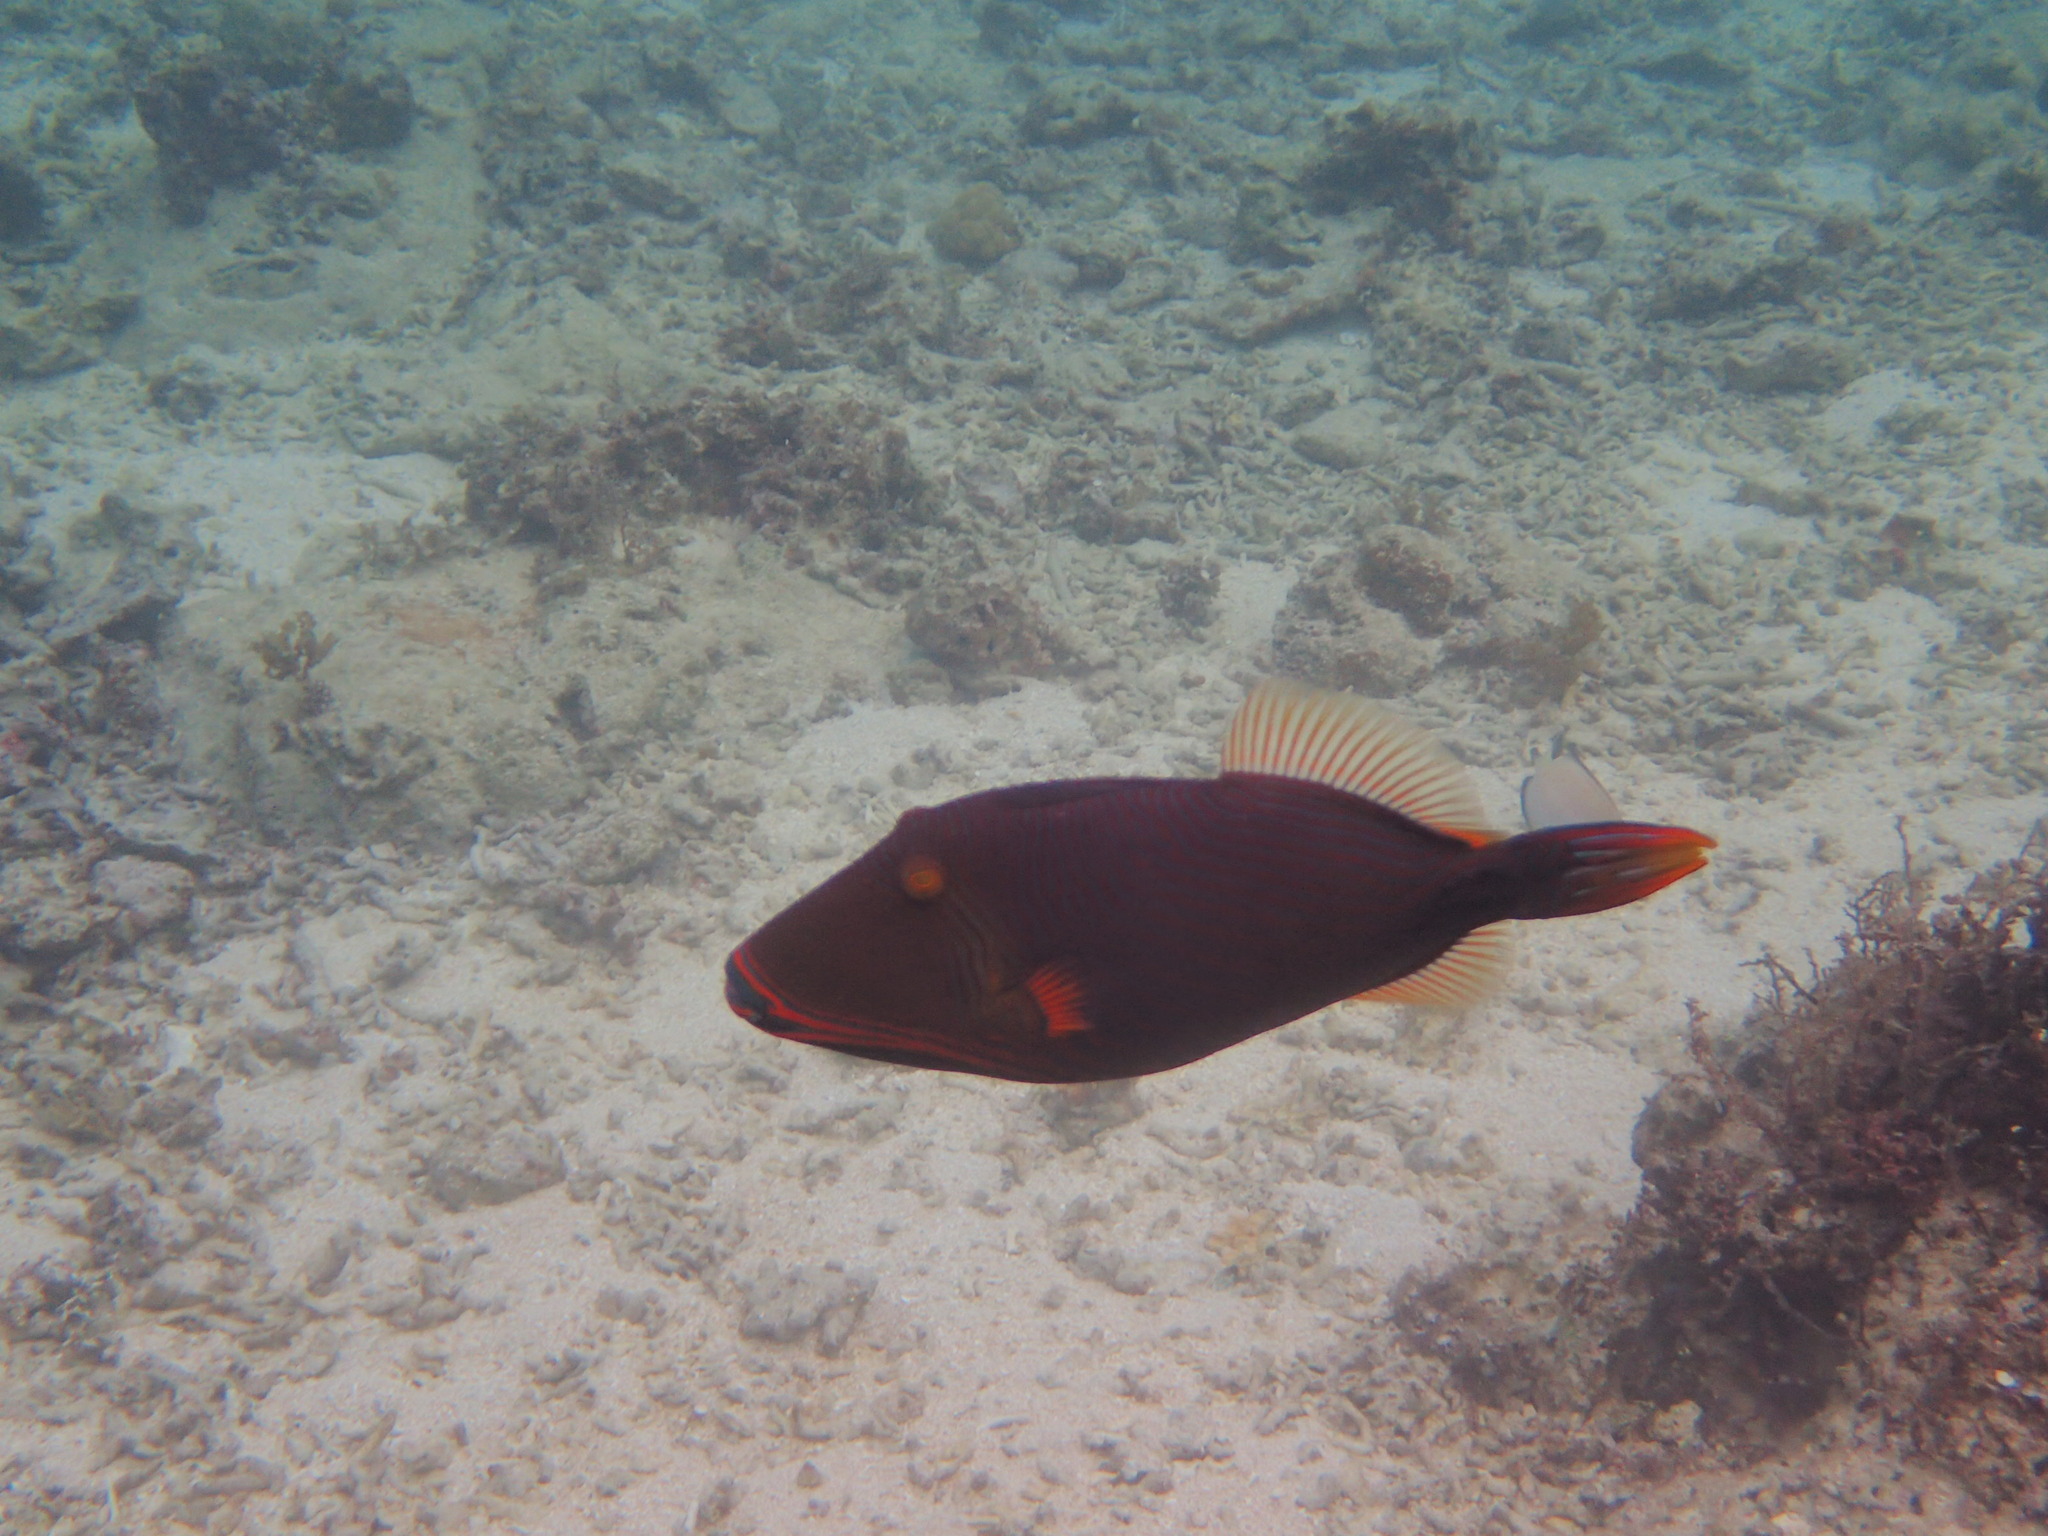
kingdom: Animalia
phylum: Chordata
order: Tetraodontiformes
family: Balistidae
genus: Balistapus
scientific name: Balistapus undulatus
